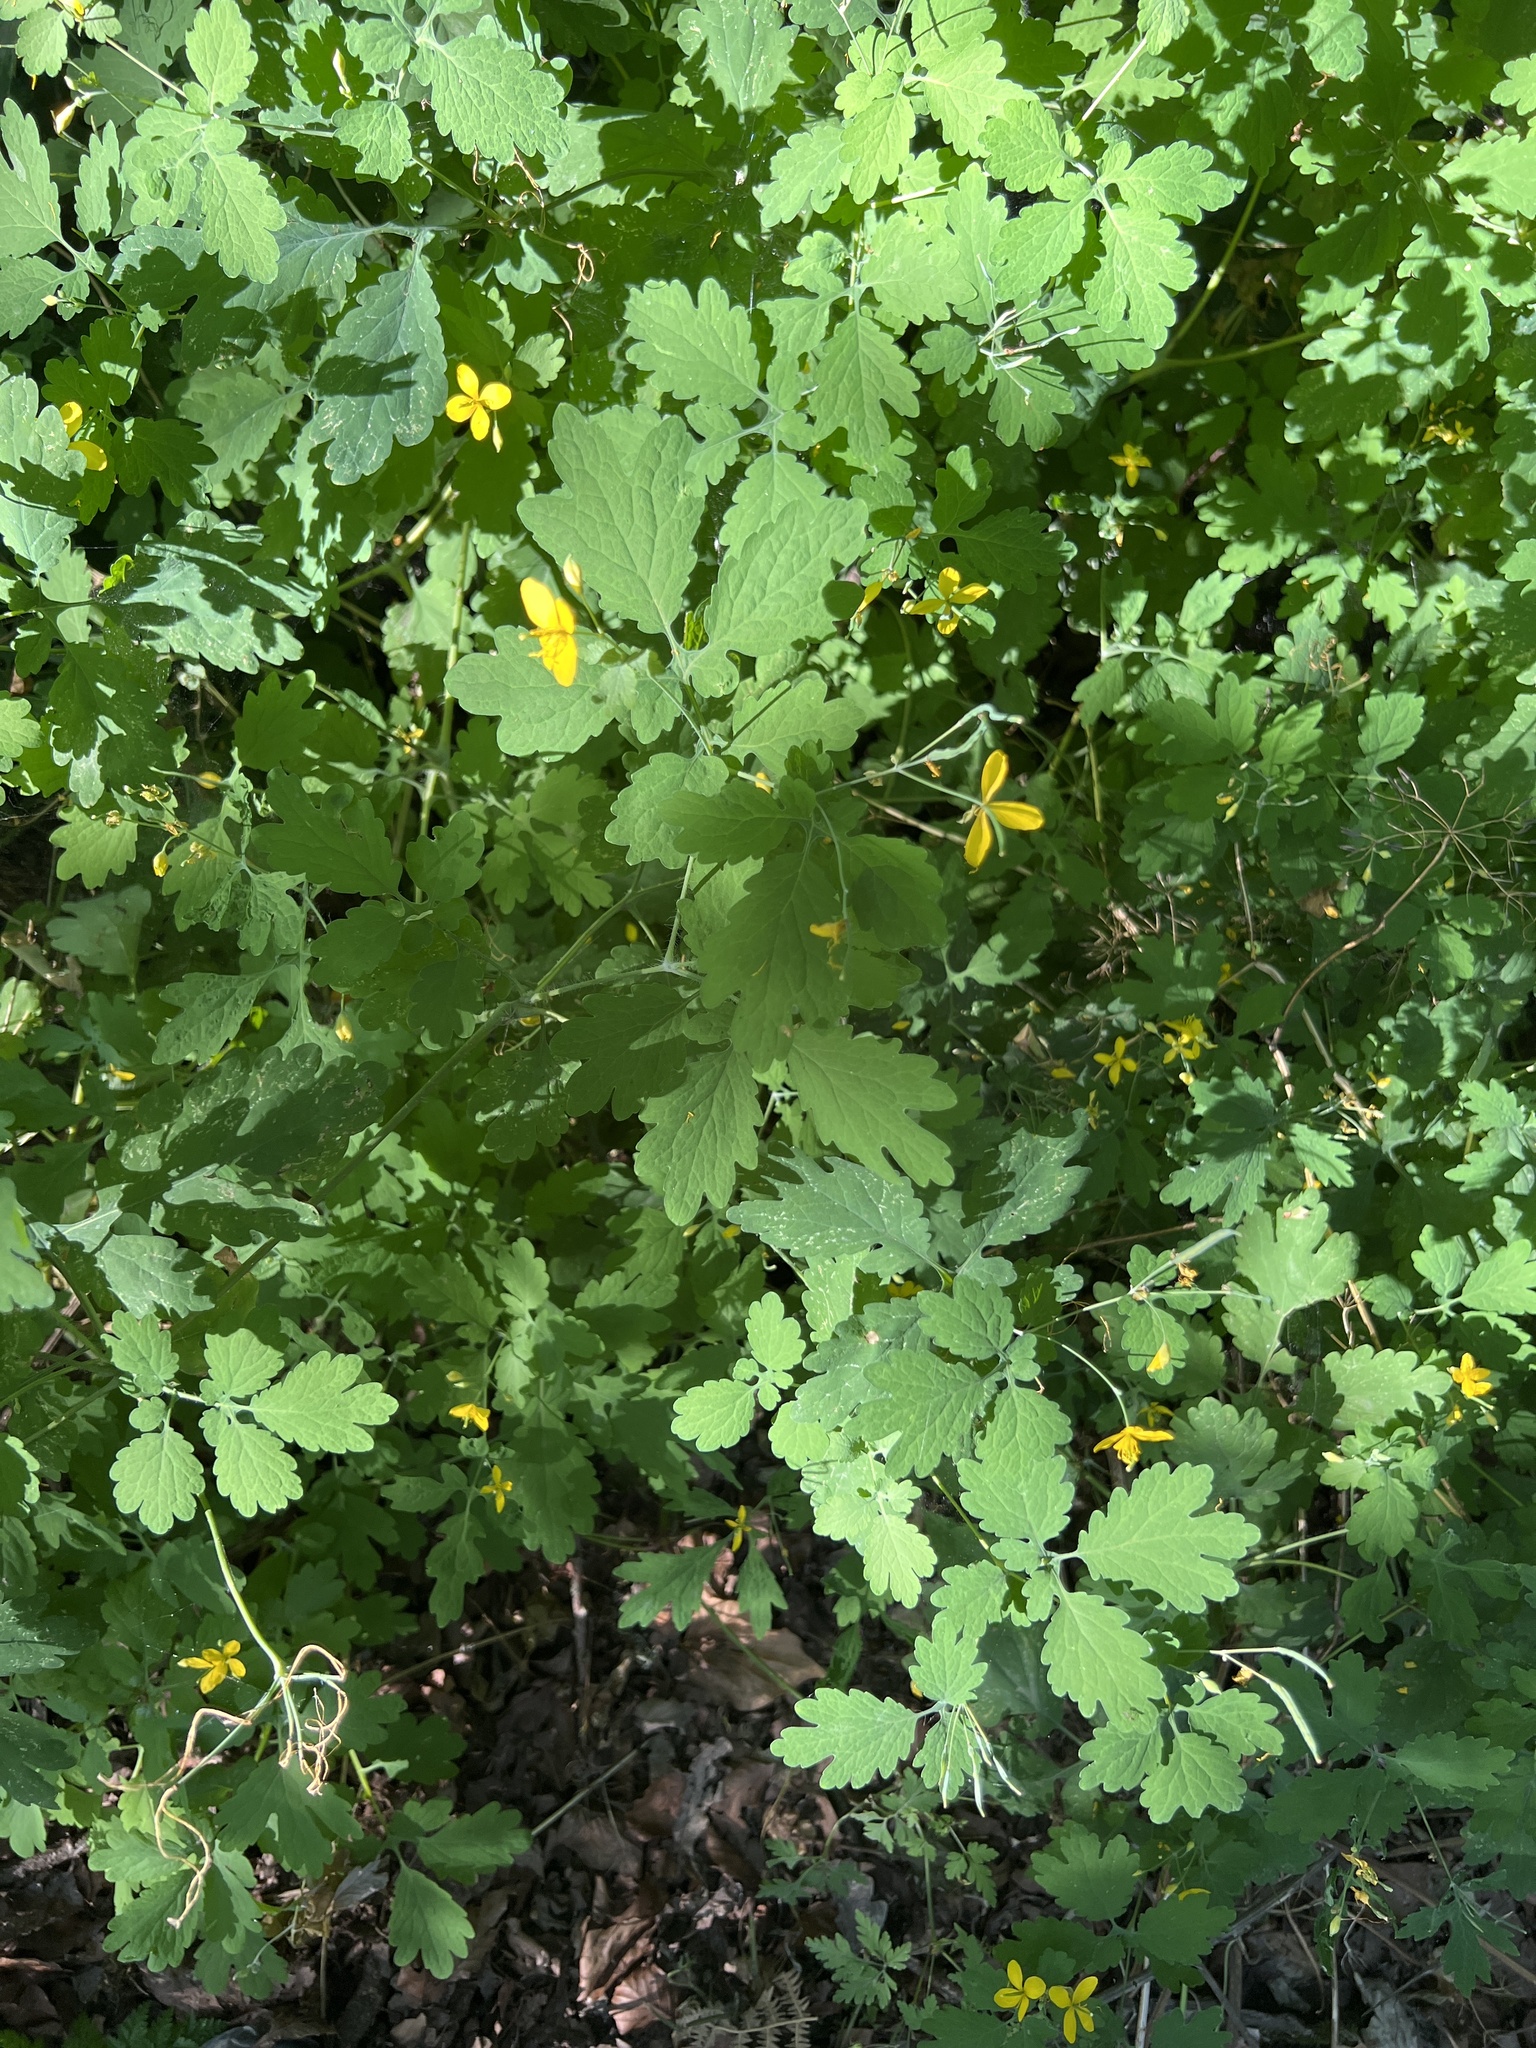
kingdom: Plantae
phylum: Tracheophyta
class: Magnoliopsida
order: Ranunculales
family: Papaveraceae
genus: Chelidonium
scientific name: Chelidonium majus
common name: Greater celandine
